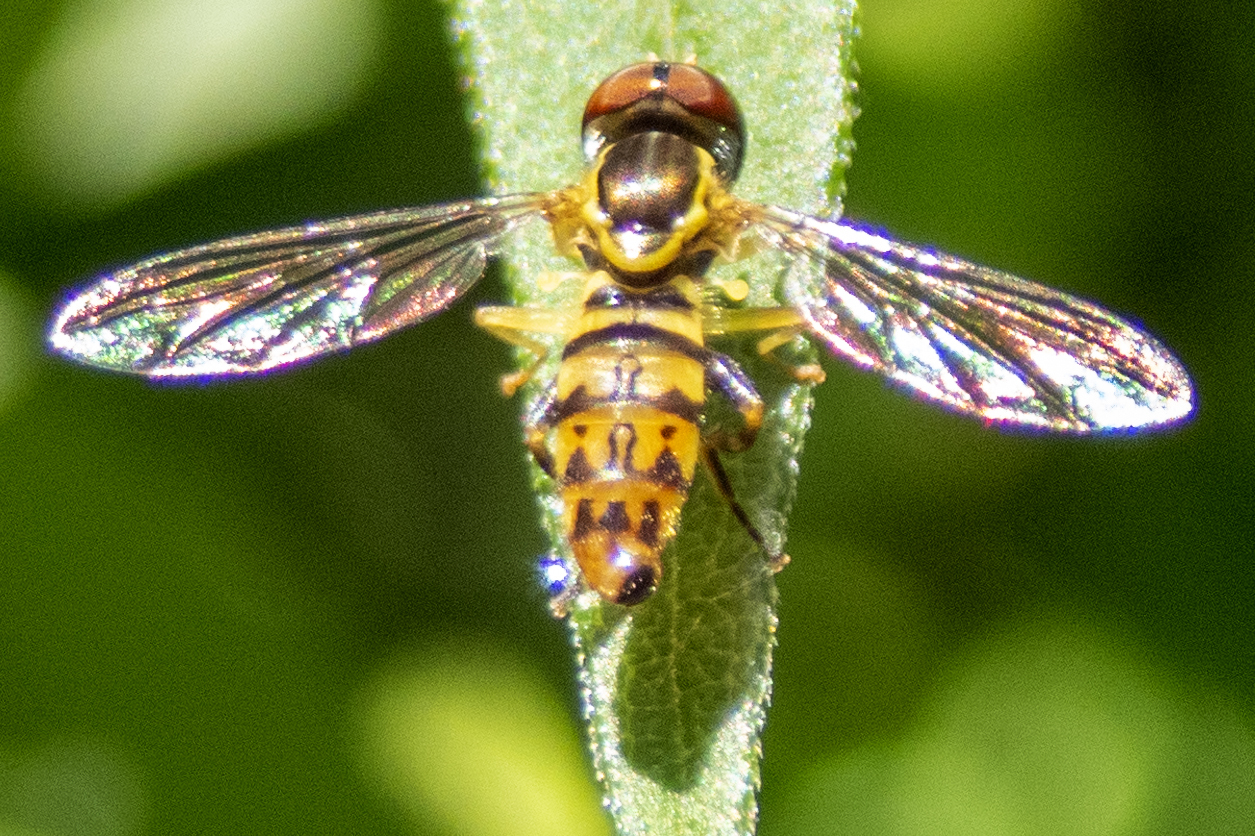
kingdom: Animalia
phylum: Arthropoda
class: Insecta
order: Diptera
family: Syrphidae
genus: Toxomerus
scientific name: Toxomerus geminatus
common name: Eastern calligrapher
